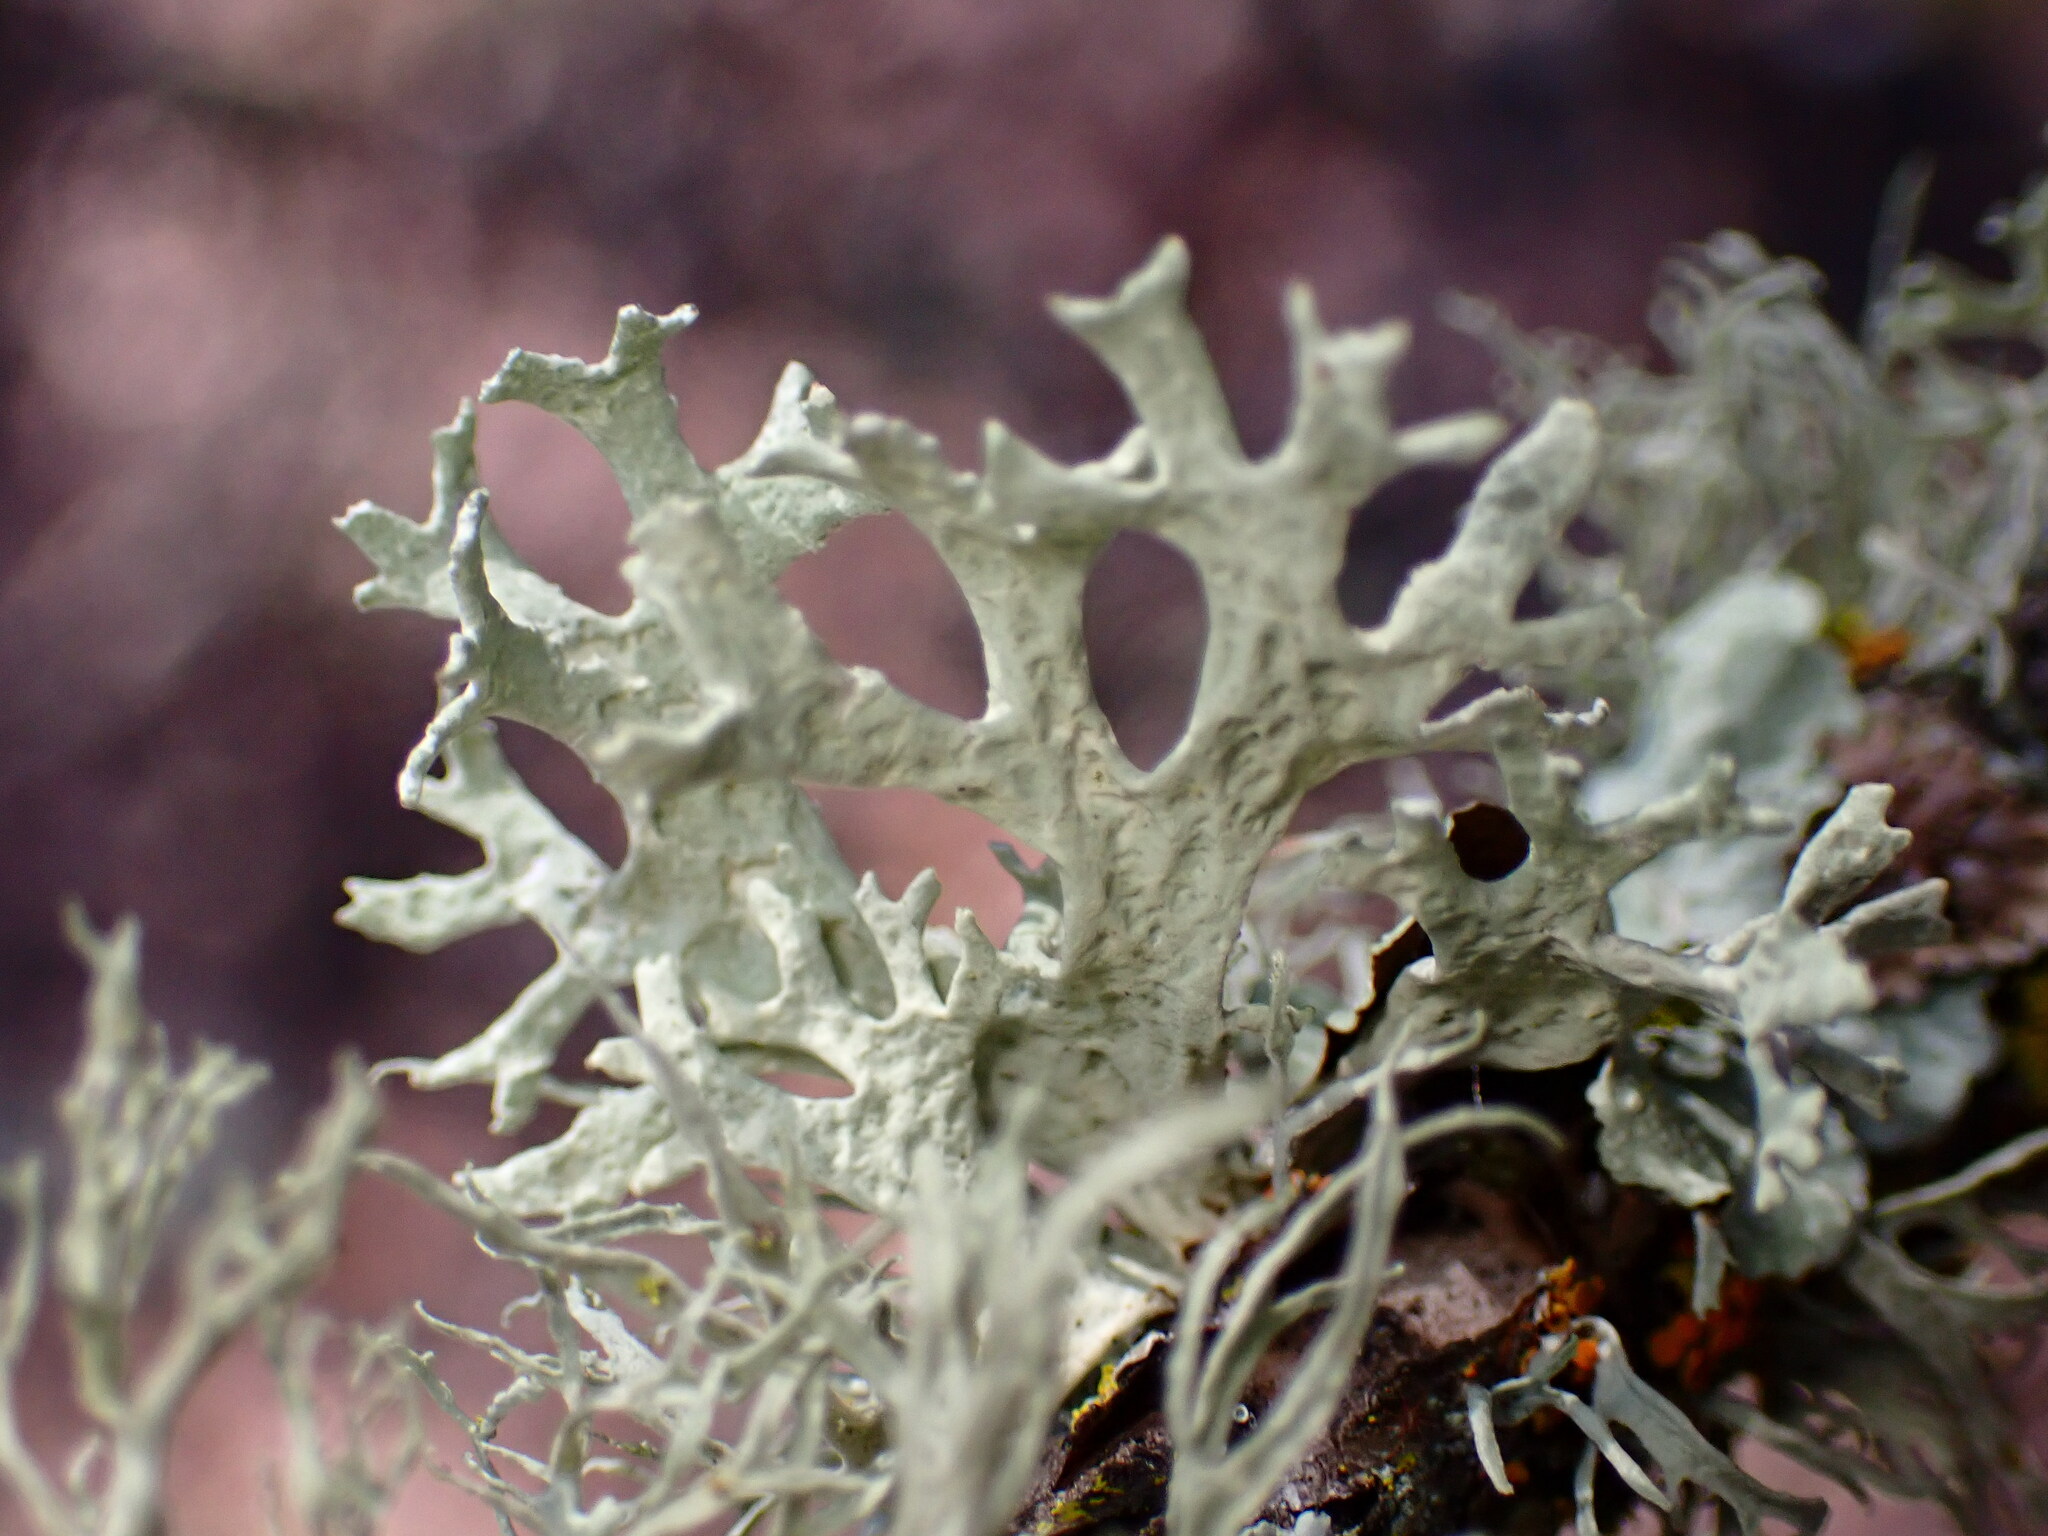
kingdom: Fungi
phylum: Ascomycota
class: Lecanoromycetes
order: Lecanorales
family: Parmeliaceae
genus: Evernia
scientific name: Evernia prunastri
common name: Oak moss
